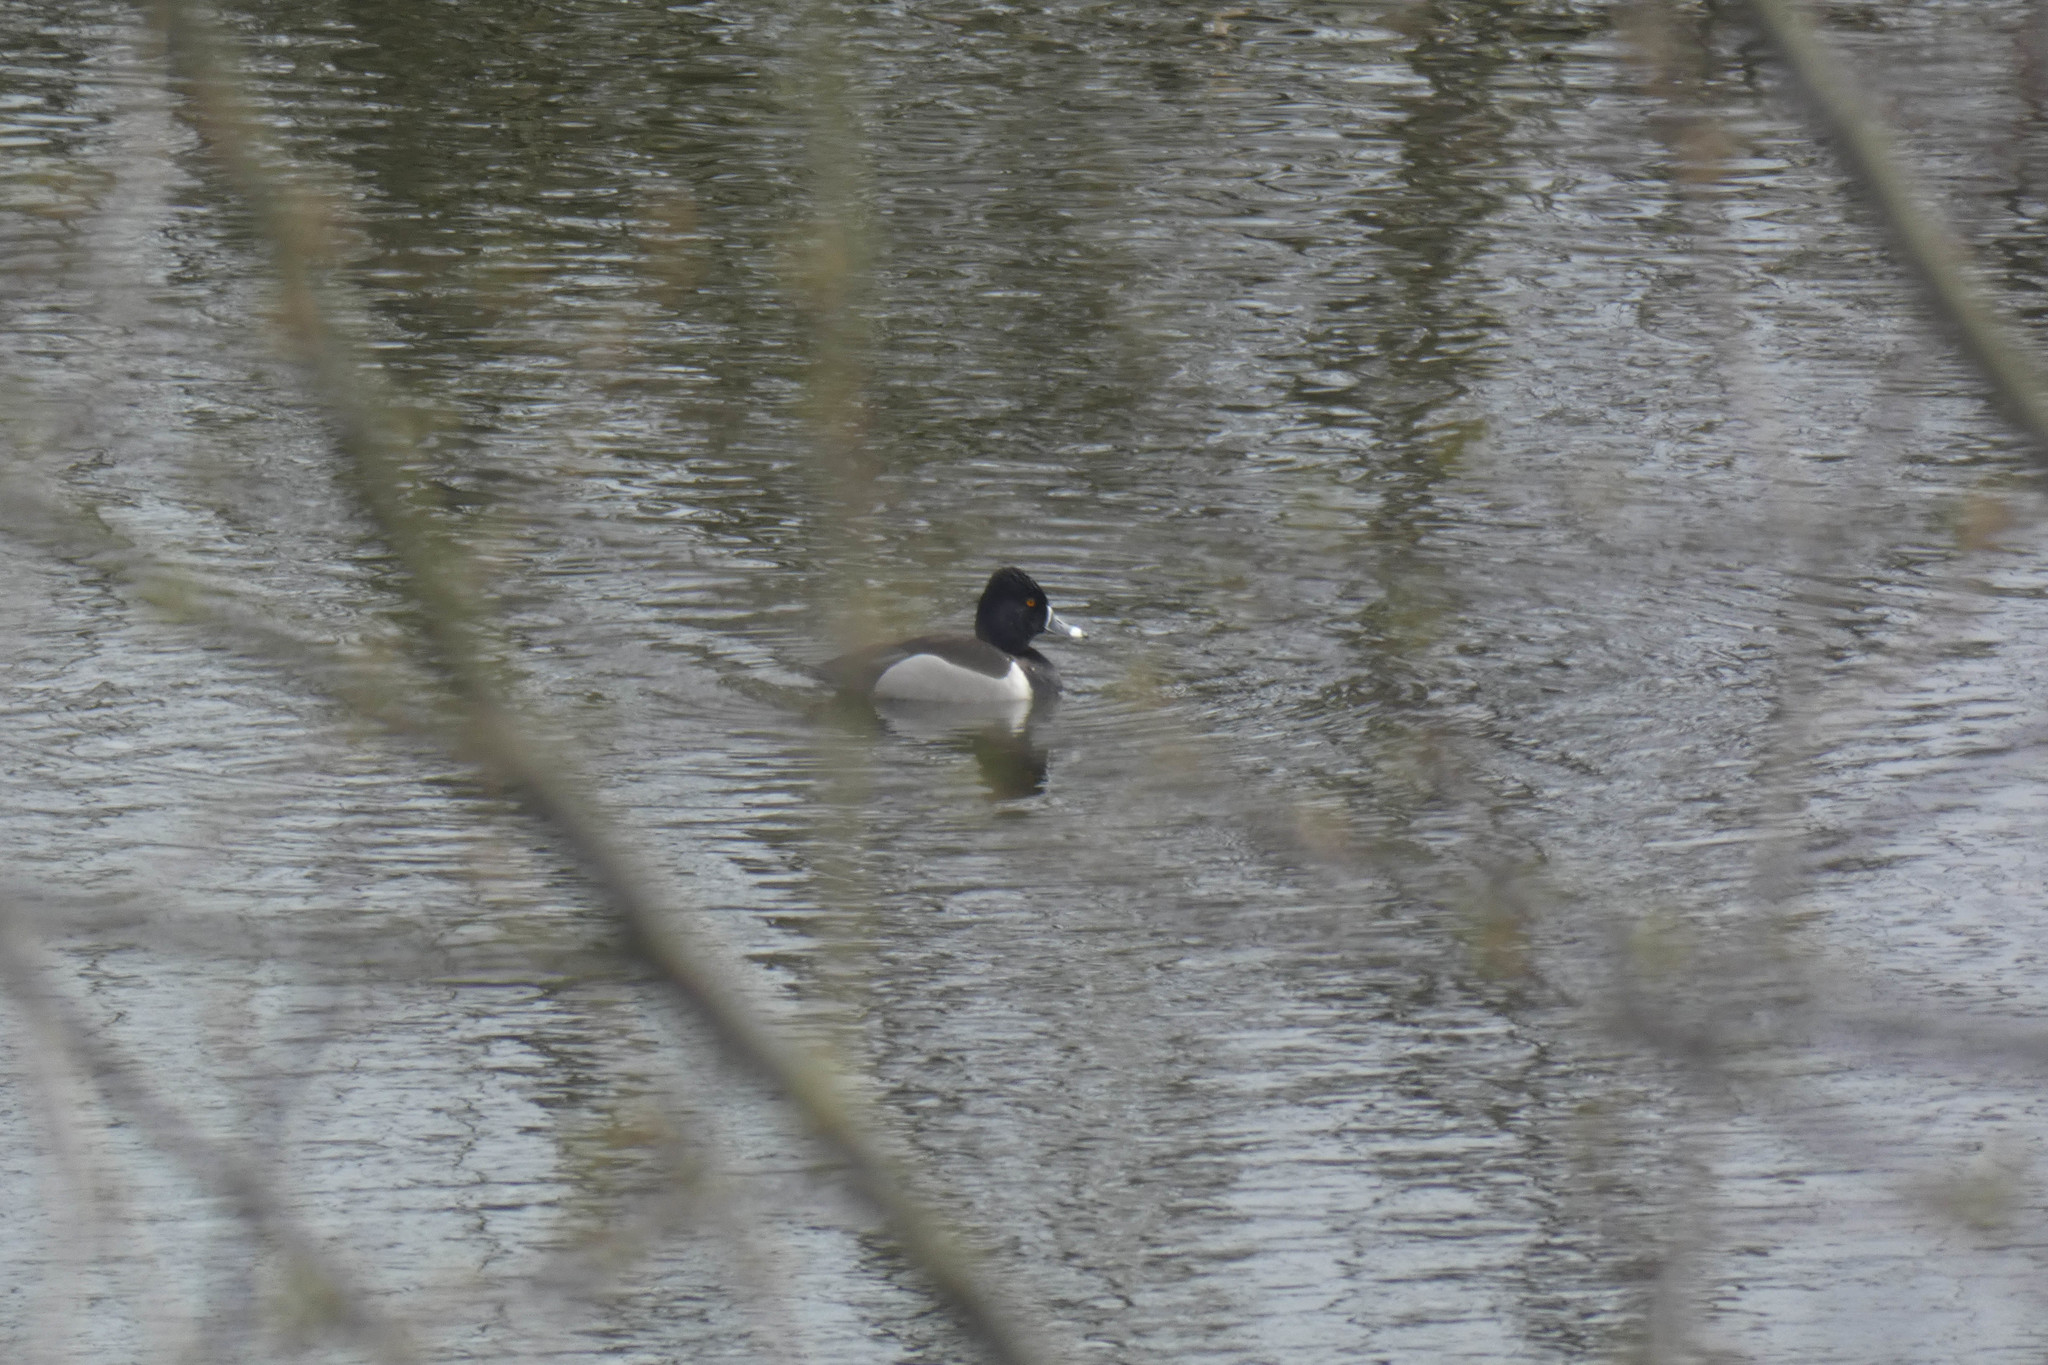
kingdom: Animalia
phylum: Chordata
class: Aves
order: Anseriformes
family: Anatidae
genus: Aythya
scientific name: Aythya collaris
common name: Ring-necked duck
